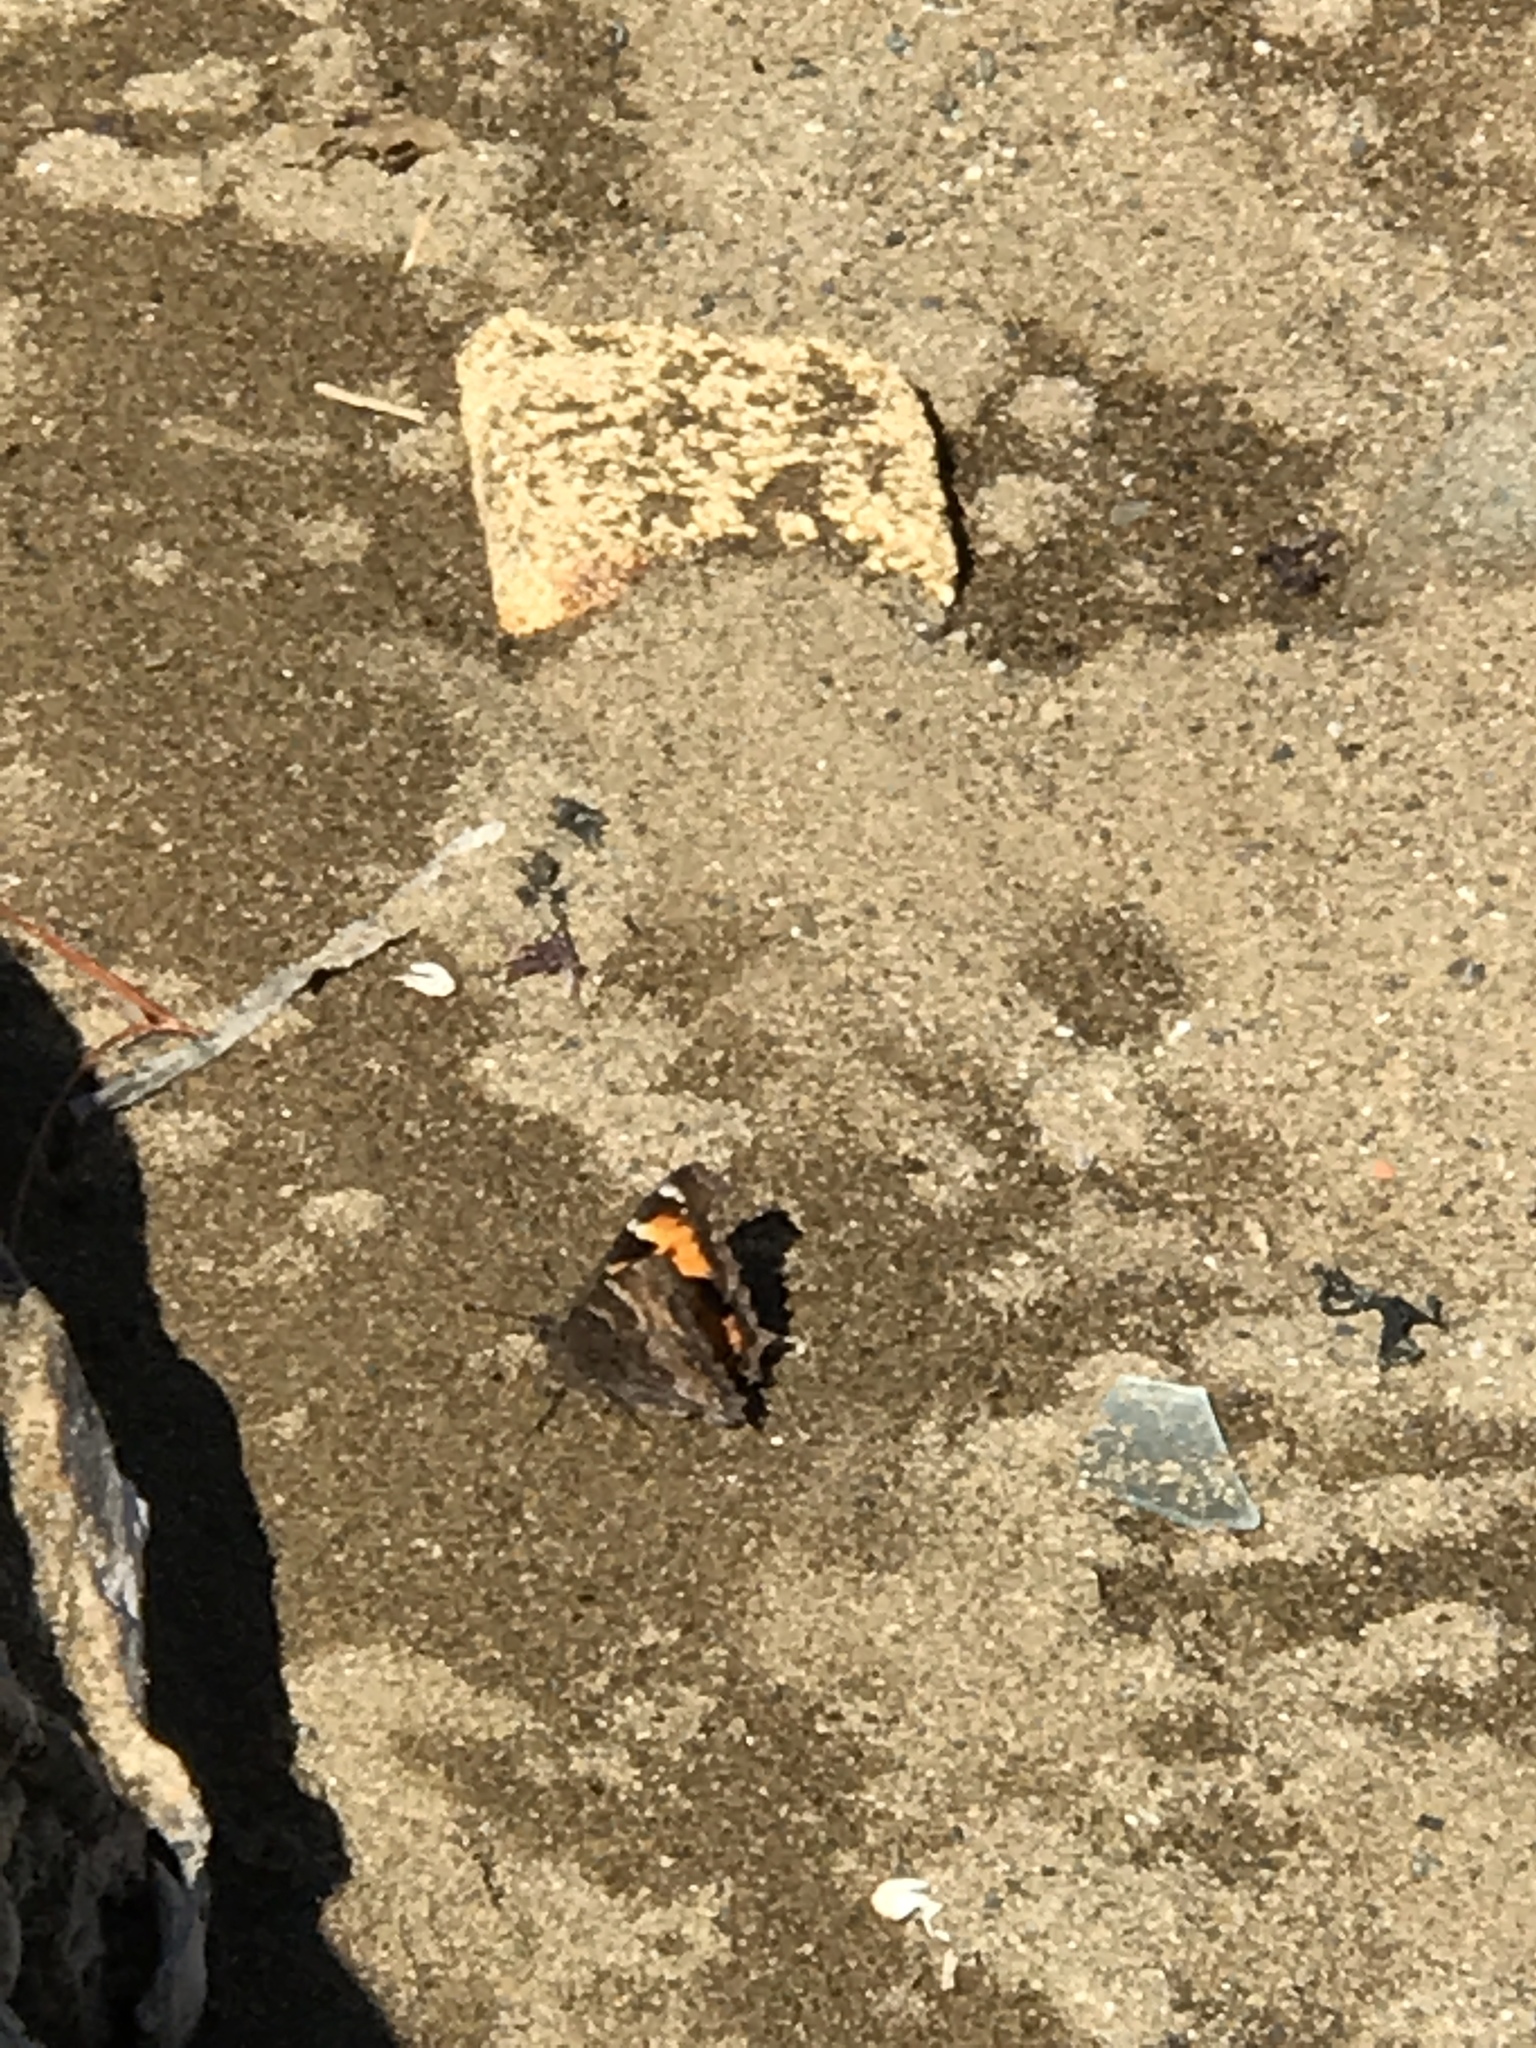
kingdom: Animalia
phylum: Arthropoda
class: Insecta
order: Lepidoptera
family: Nymphalidae
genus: Nymphalis
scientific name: Nymphalis californica
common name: California tortoiseshell
